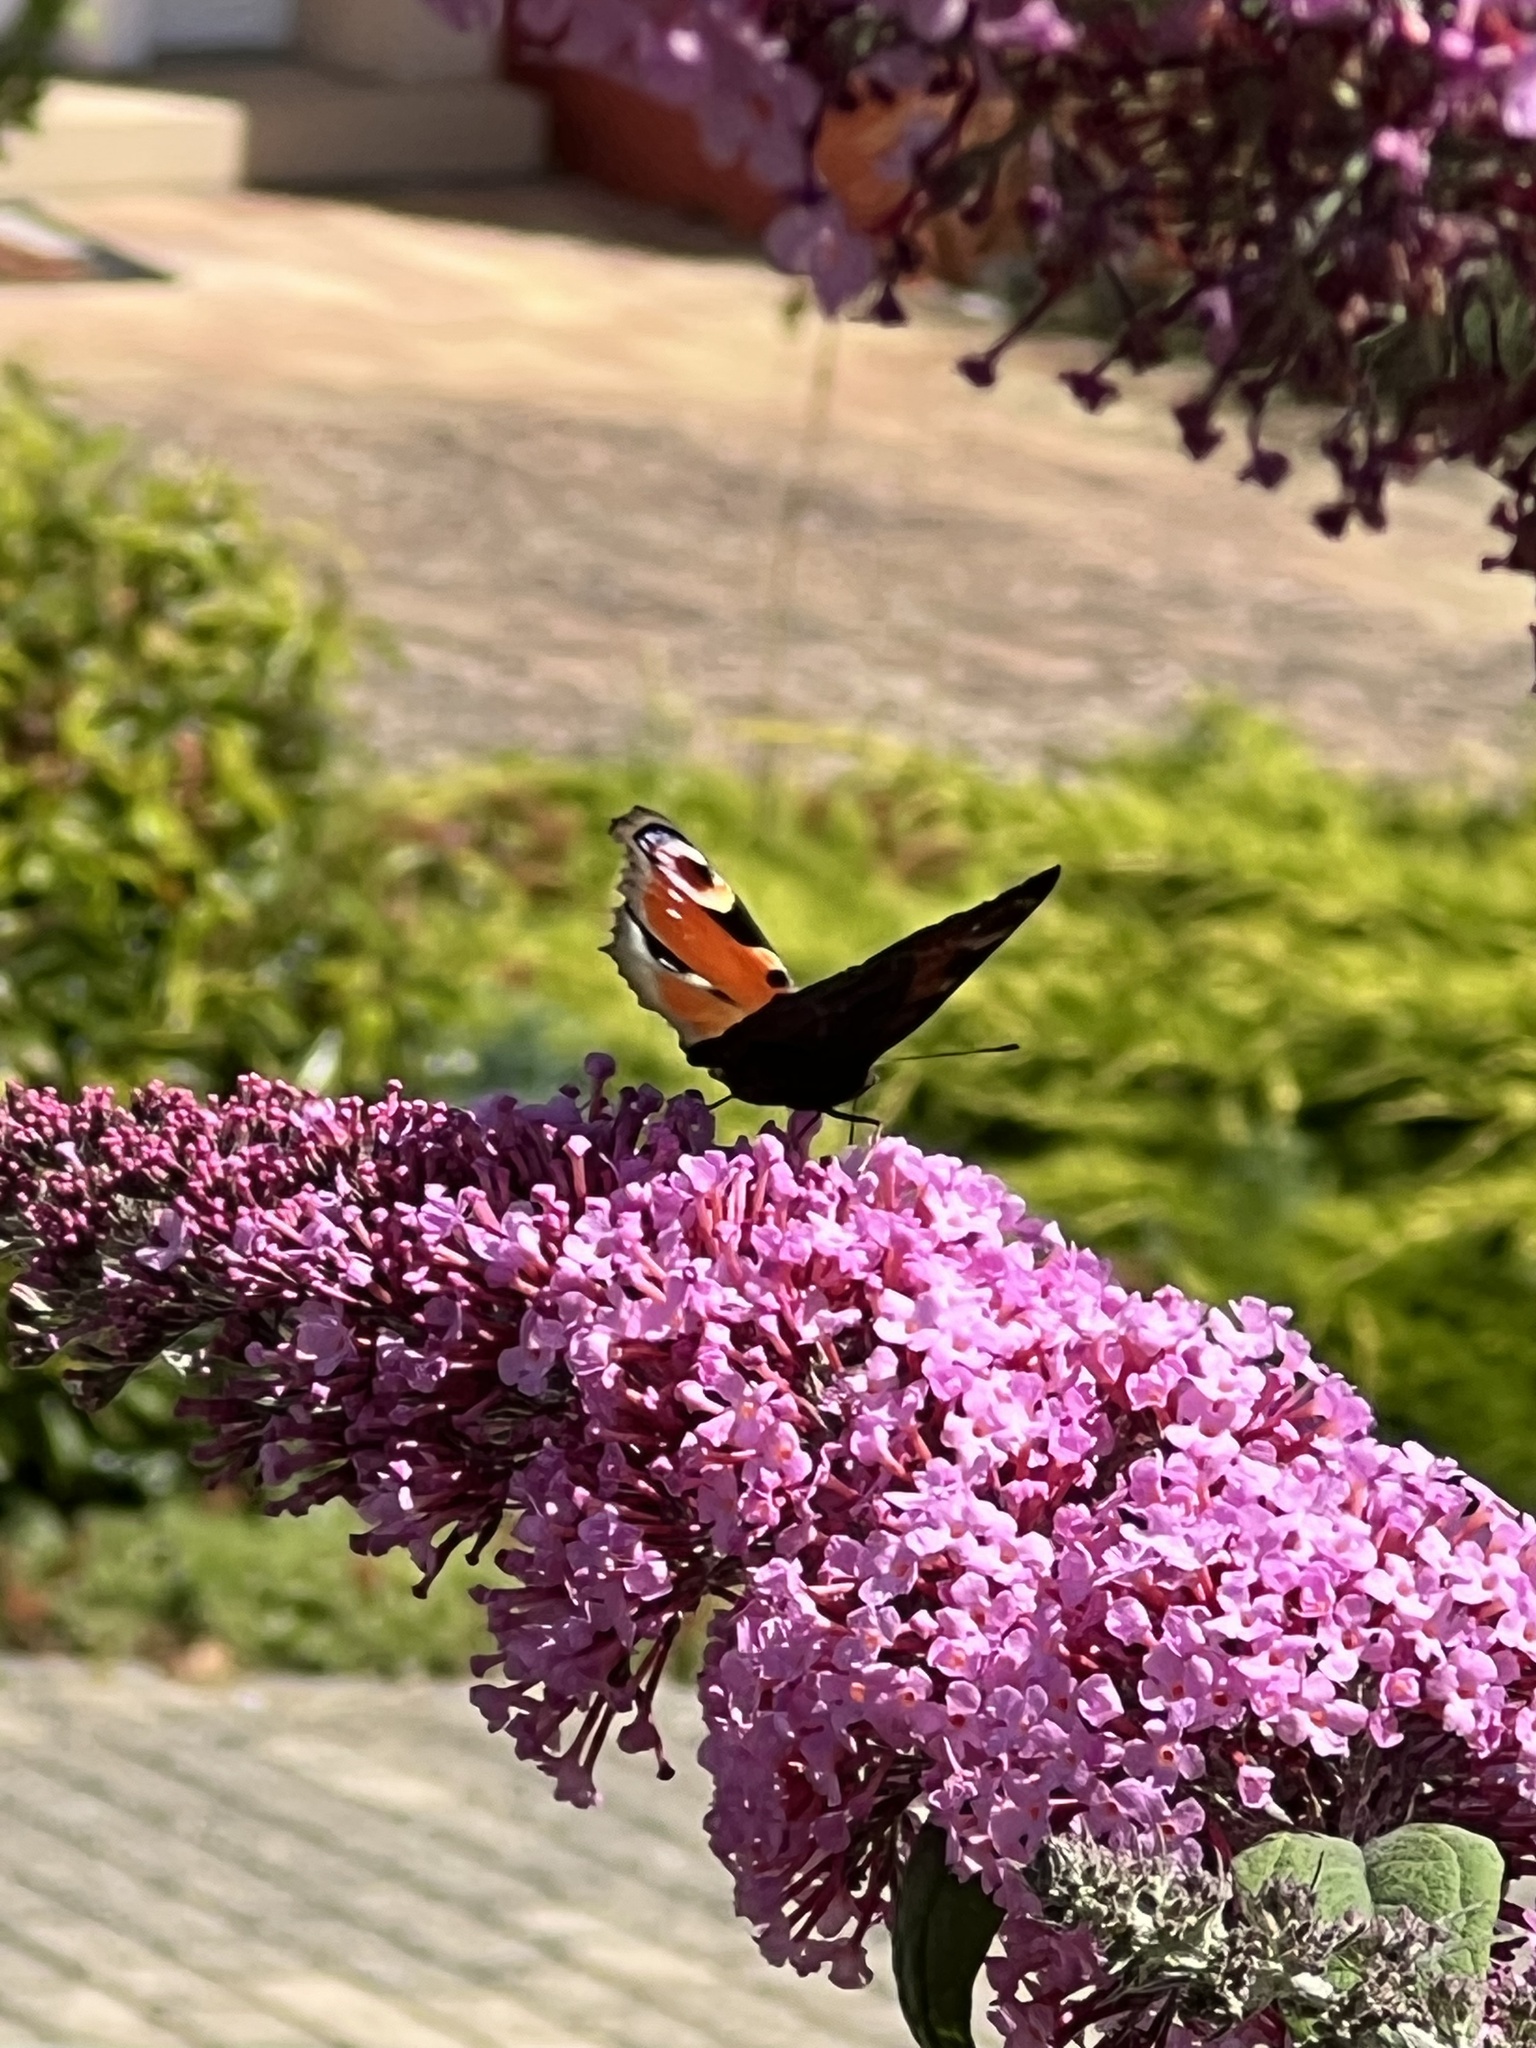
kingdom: Animalia
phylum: Arthropoda
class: Insecta
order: Lepidoptera
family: Nymphalidae
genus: Aglais
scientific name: Aglais io
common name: Peacock
